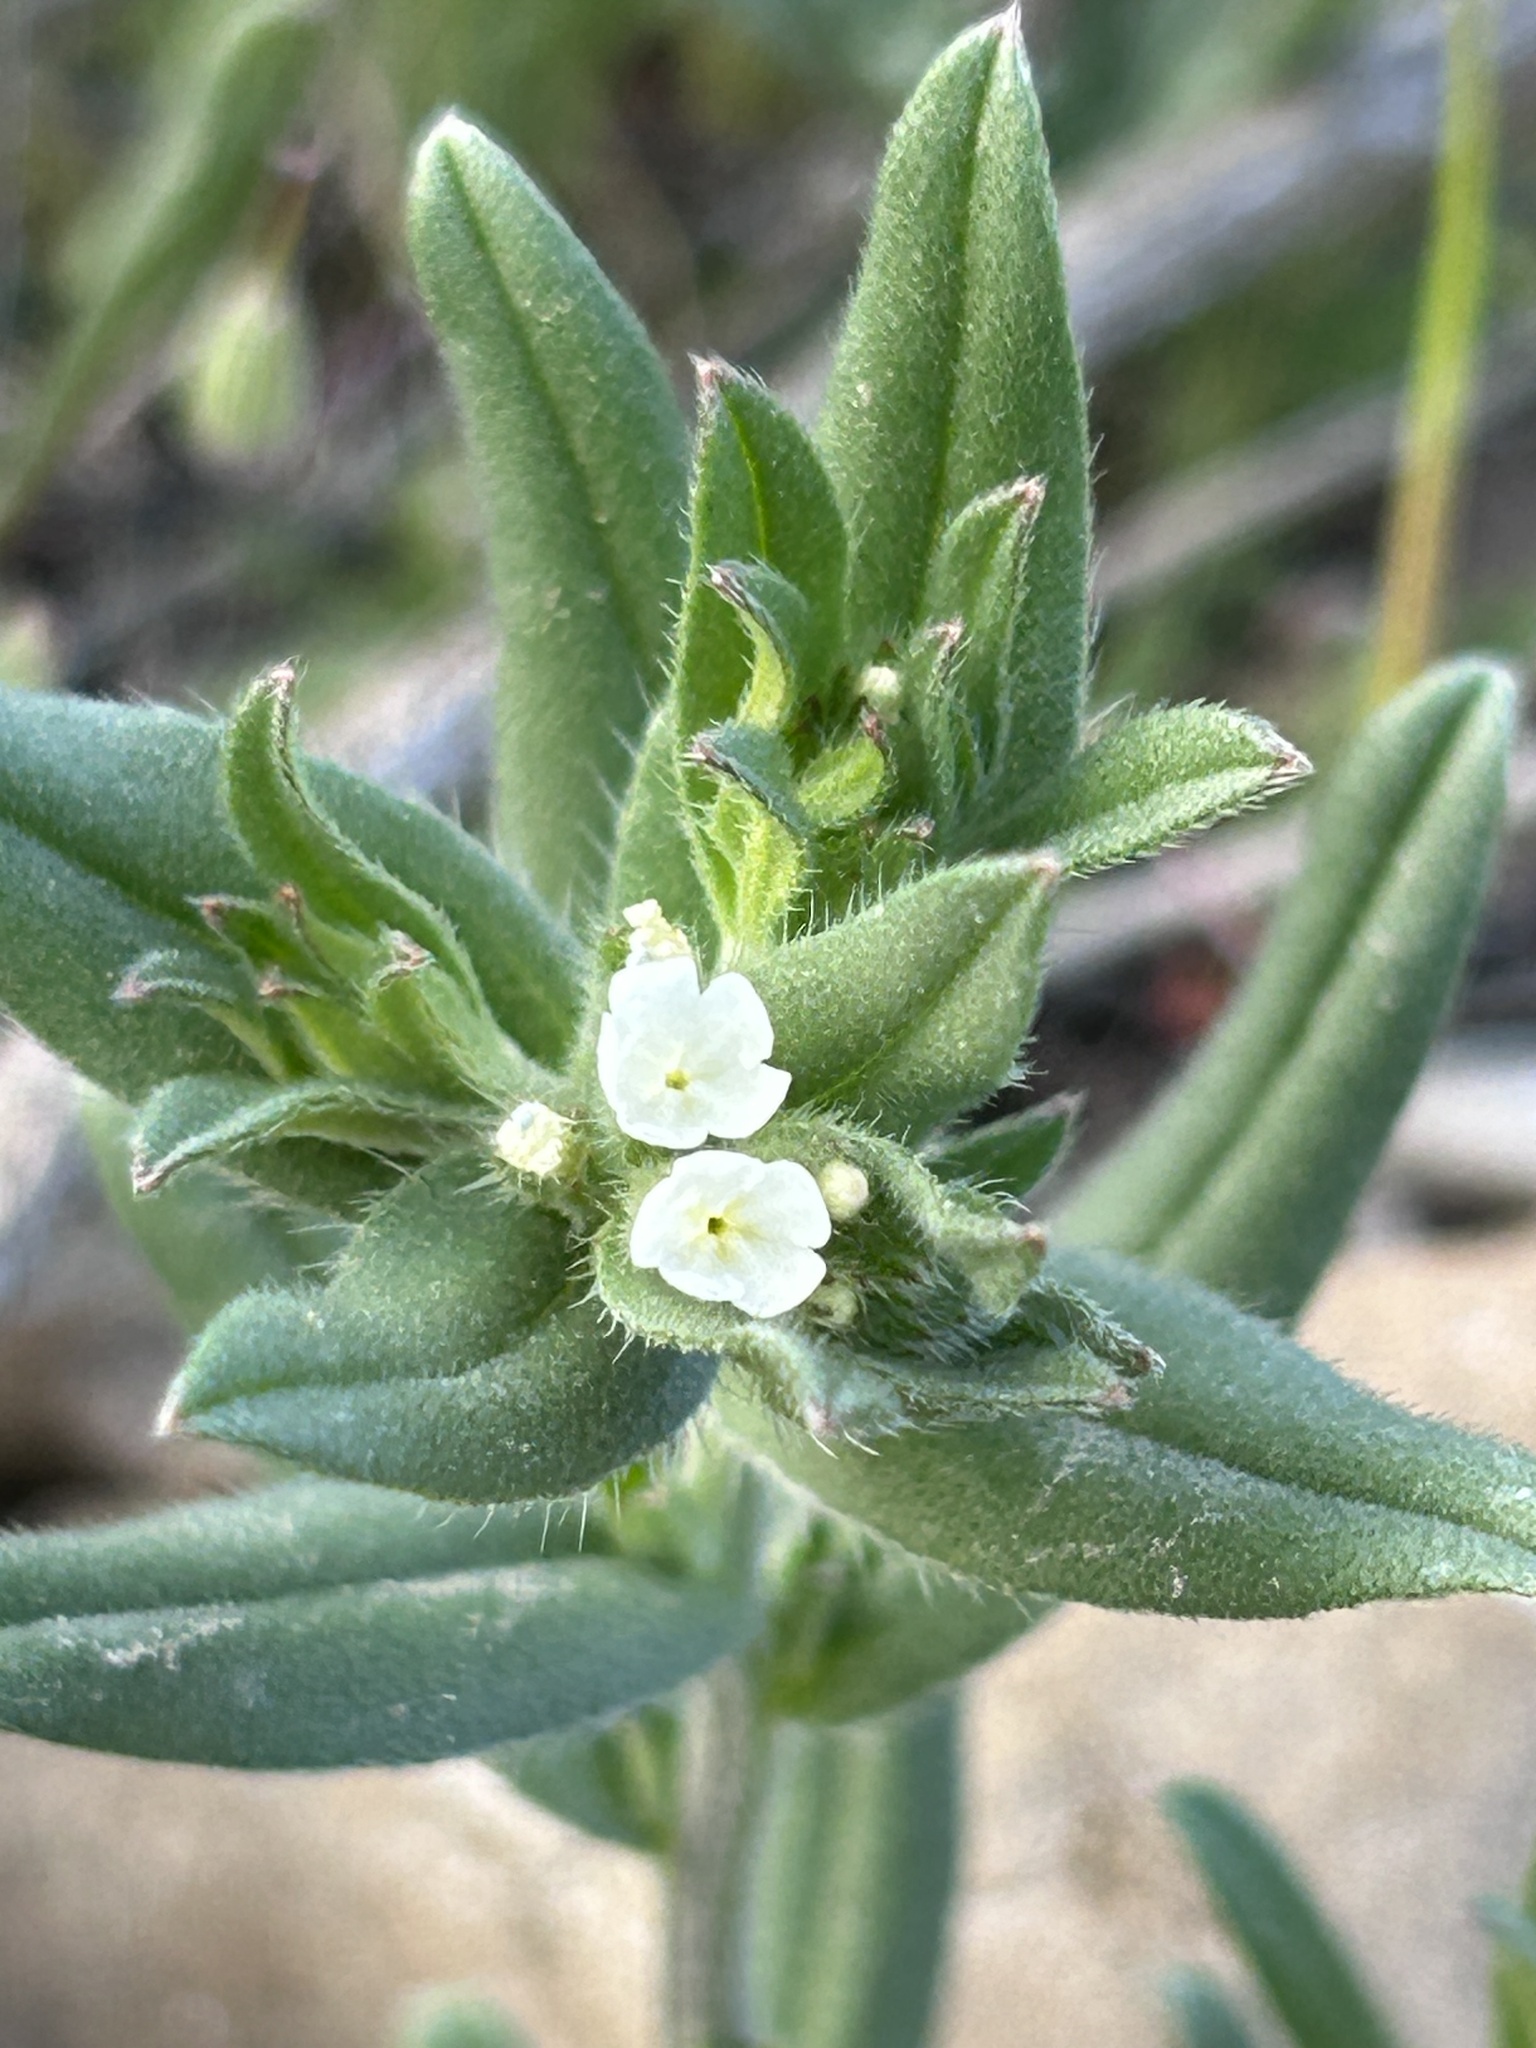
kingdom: Plantae
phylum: Tracheophyta
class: Magnoliopsida
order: Boraginales
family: Boraginaceae
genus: Buglossoides
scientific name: Buglossoides arvensis
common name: Corn gromwell
